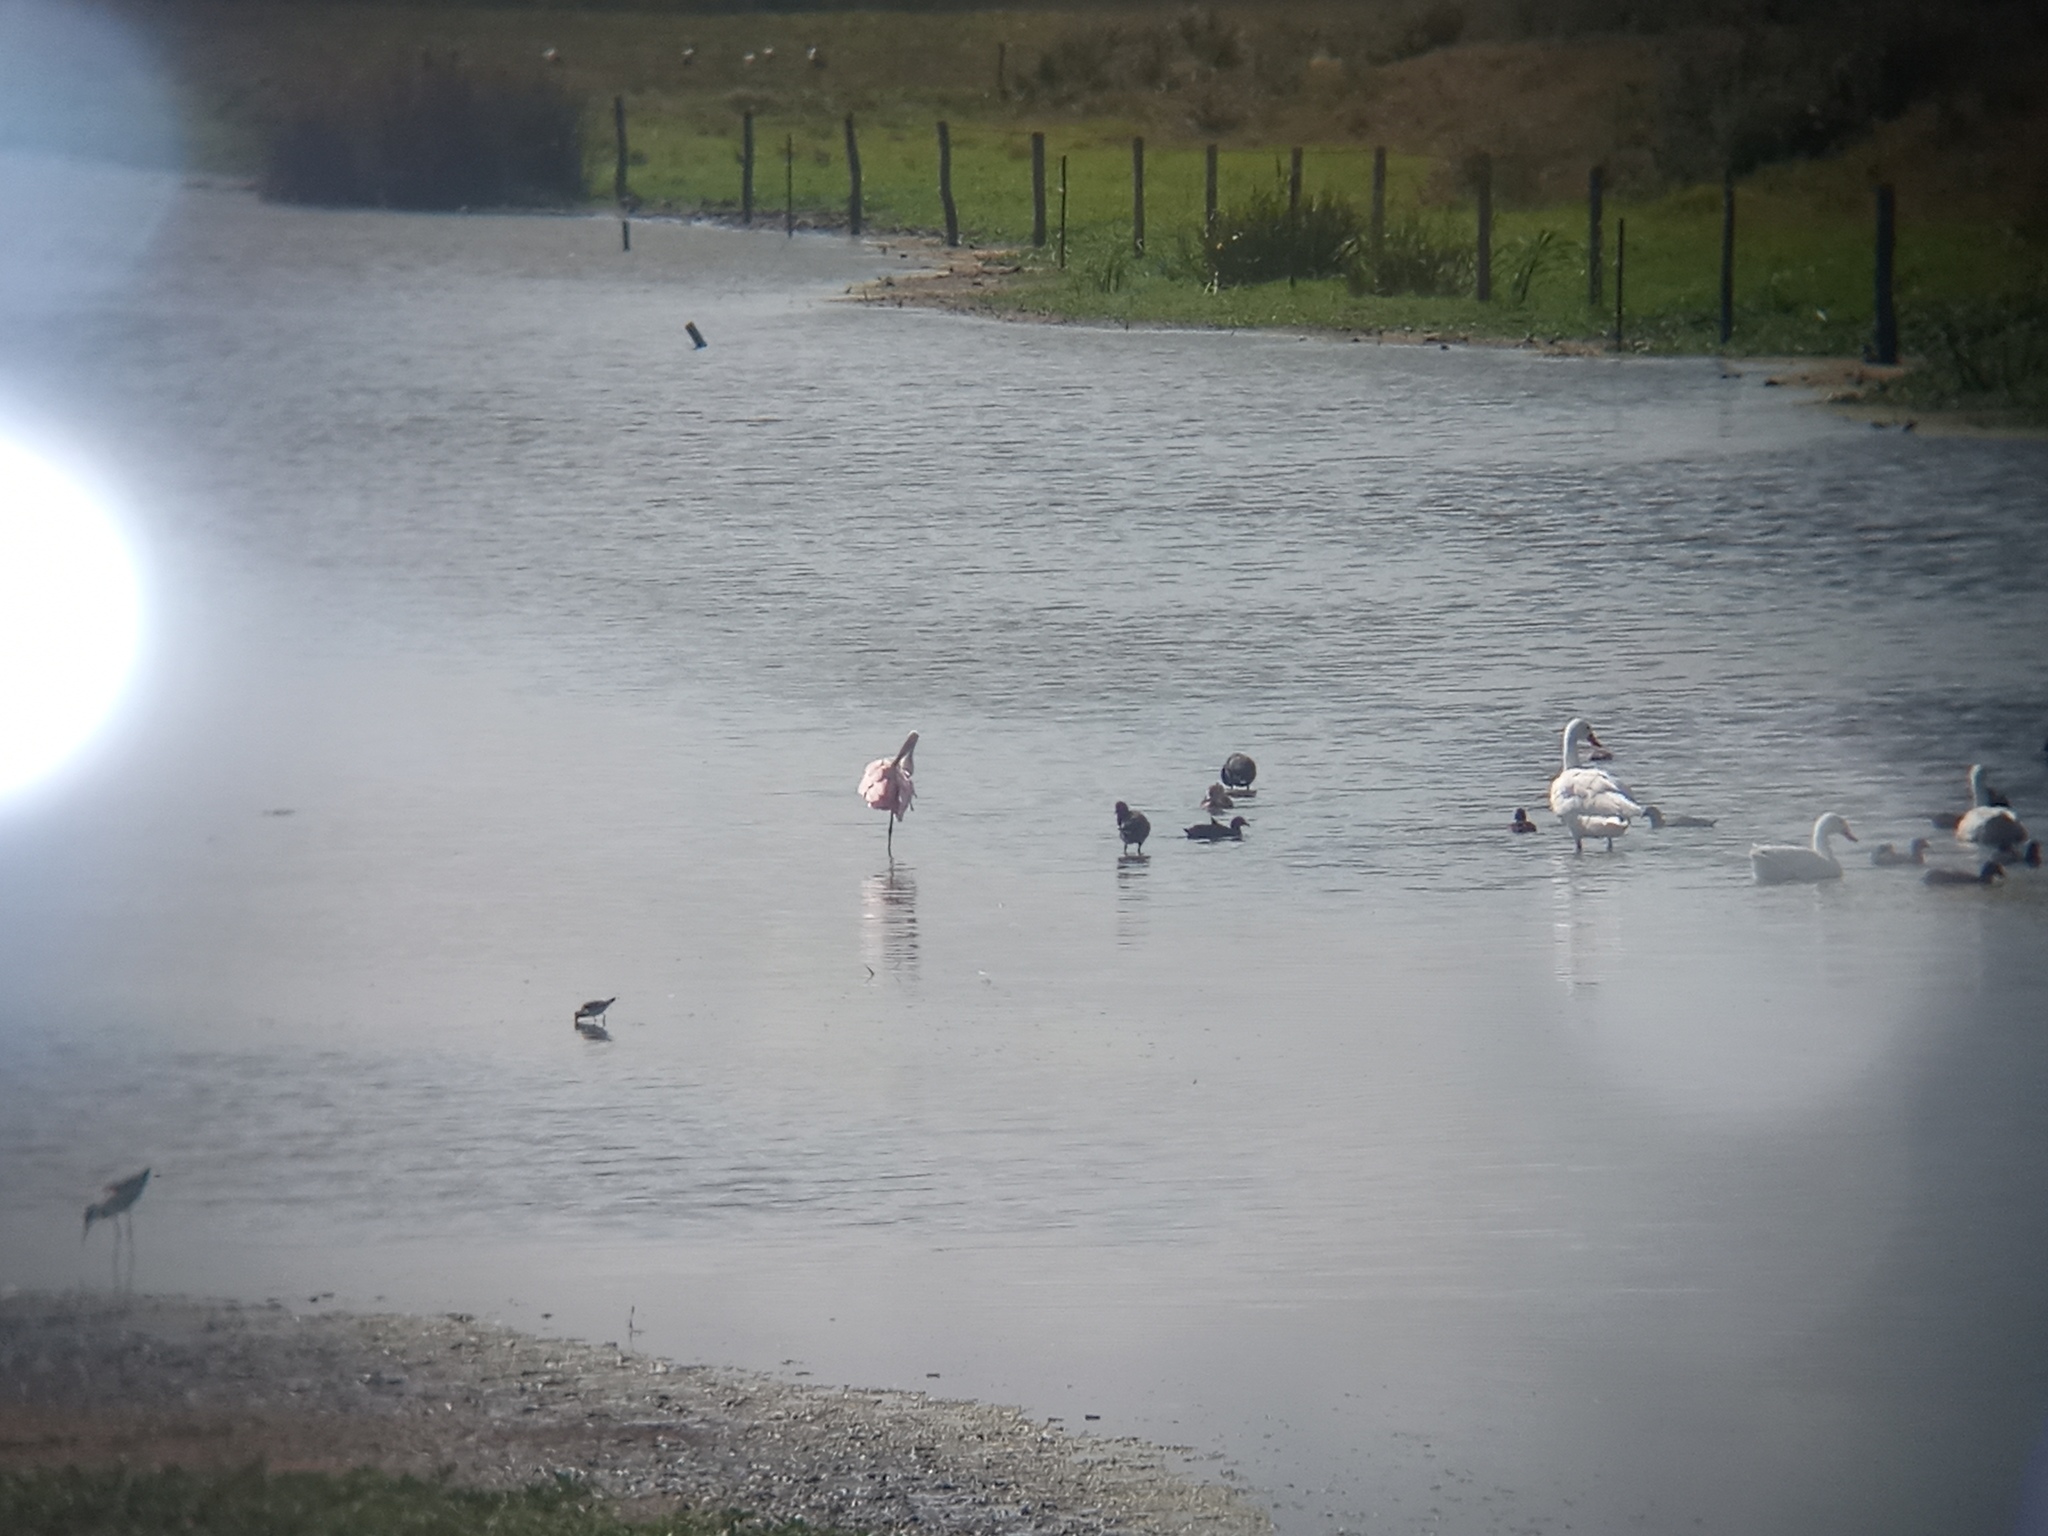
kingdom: Animalia
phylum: Chordata
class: Aves
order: Pelecaniformes
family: Threskiornithidae
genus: Platalea
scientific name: Platalea ajaja
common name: Roseate spoonbill
